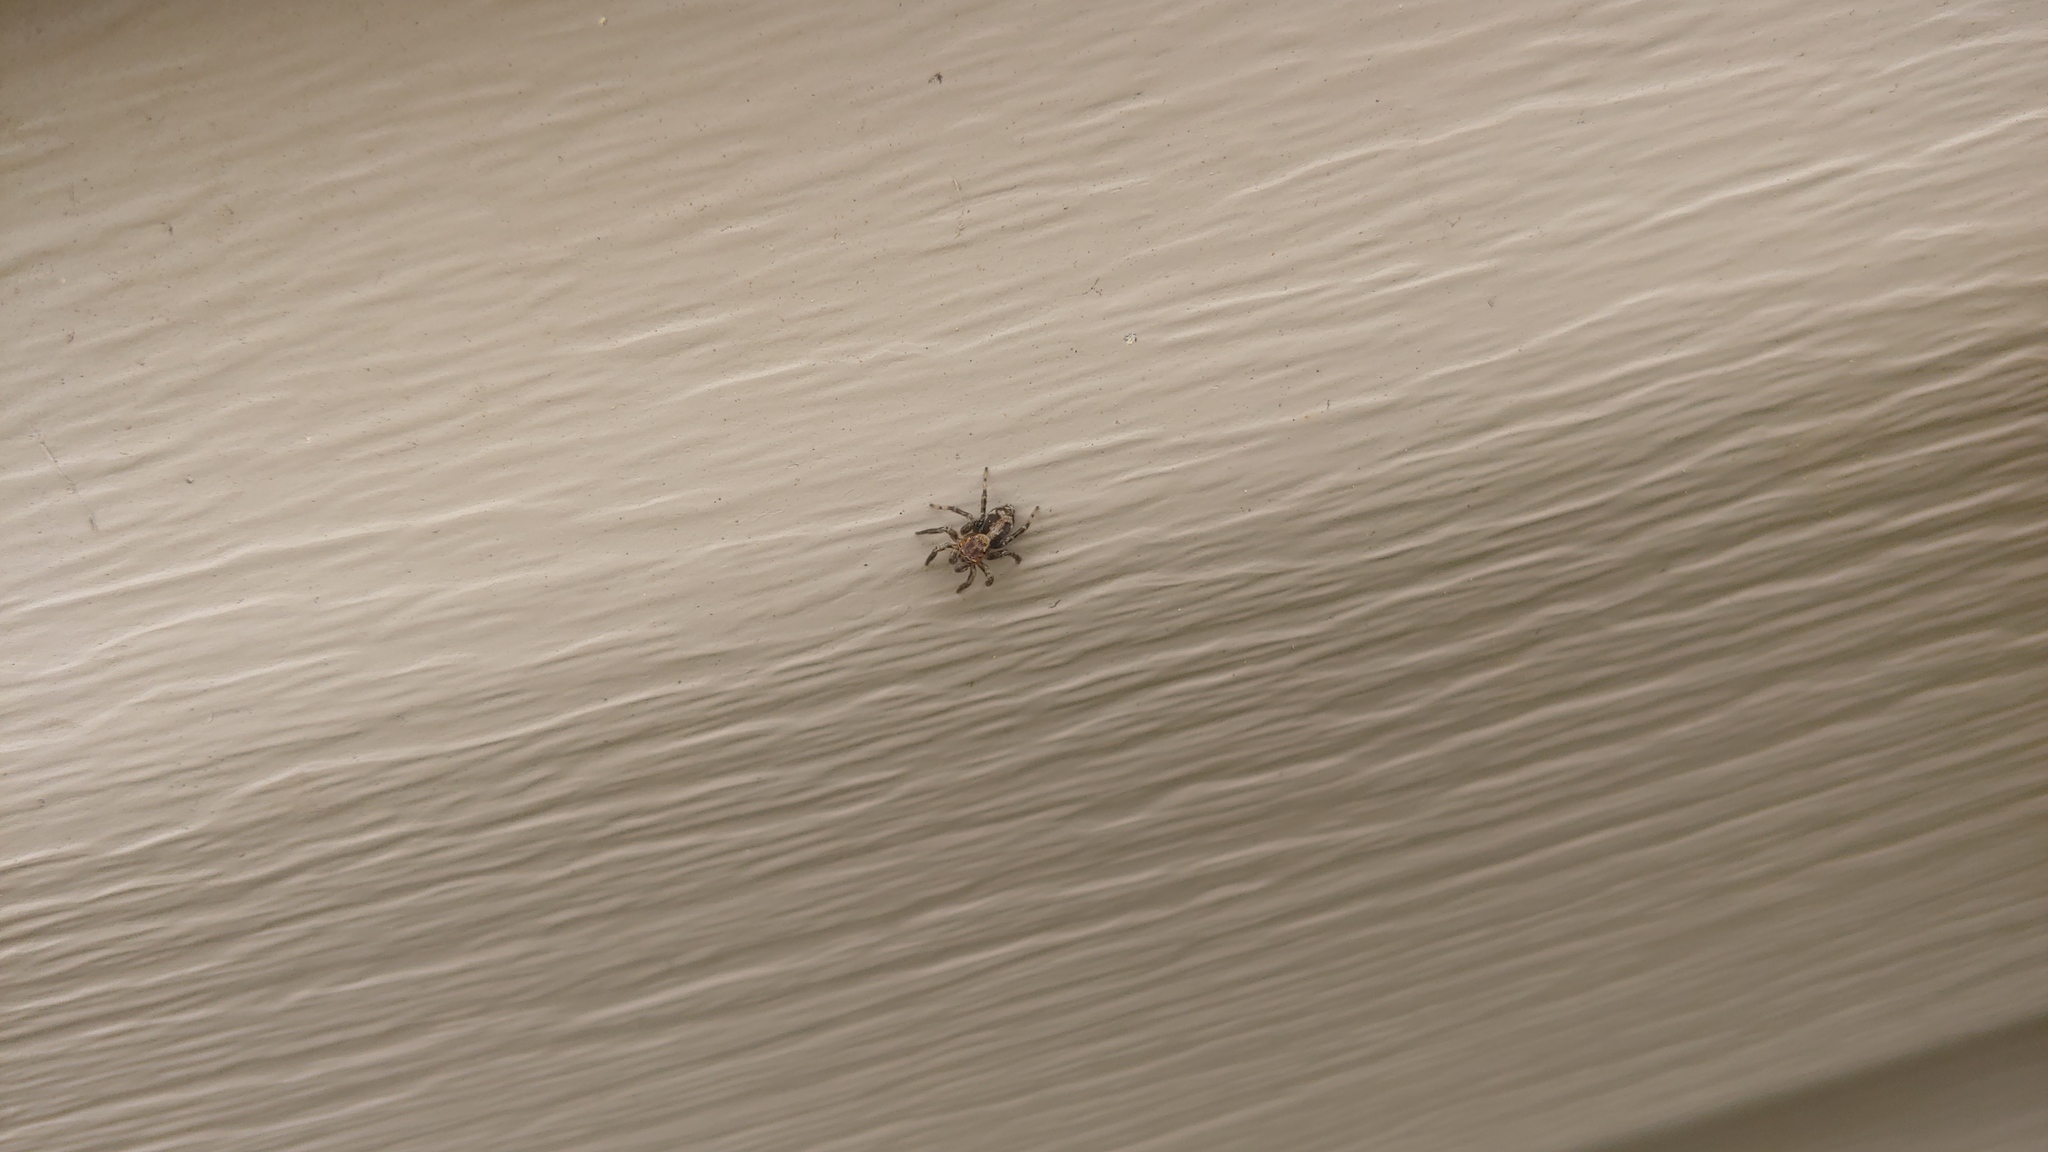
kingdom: Animalia
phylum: Arthropoda
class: Arachnida
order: Araneae
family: Salticidae
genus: Naphrys
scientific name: Naphrys pulex
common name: Flea jumping spider
